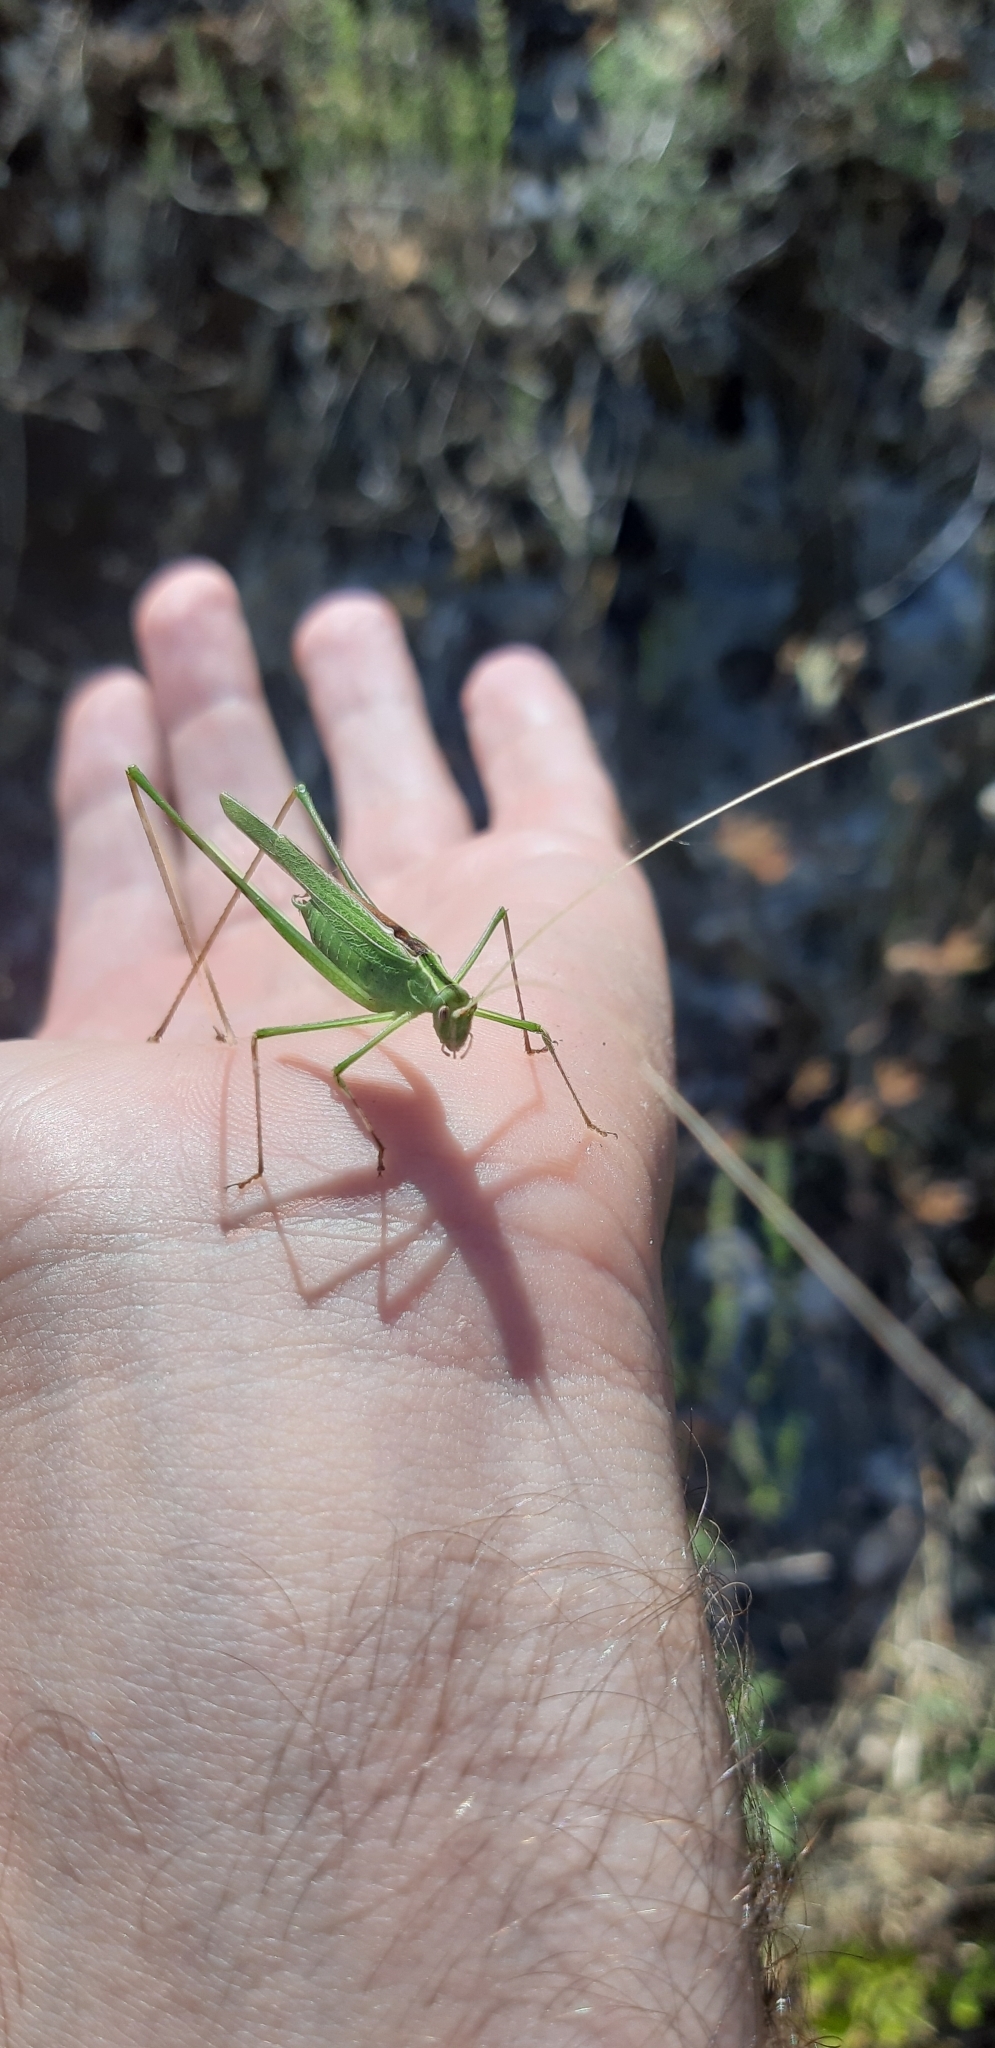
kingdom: Animalia
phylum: Arthropoda
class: Insecta
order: Orthoptera
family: Tettigoniidae
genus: Tylopsis
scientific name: Tylopsis lilifolia
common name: Lily bush-cricket
